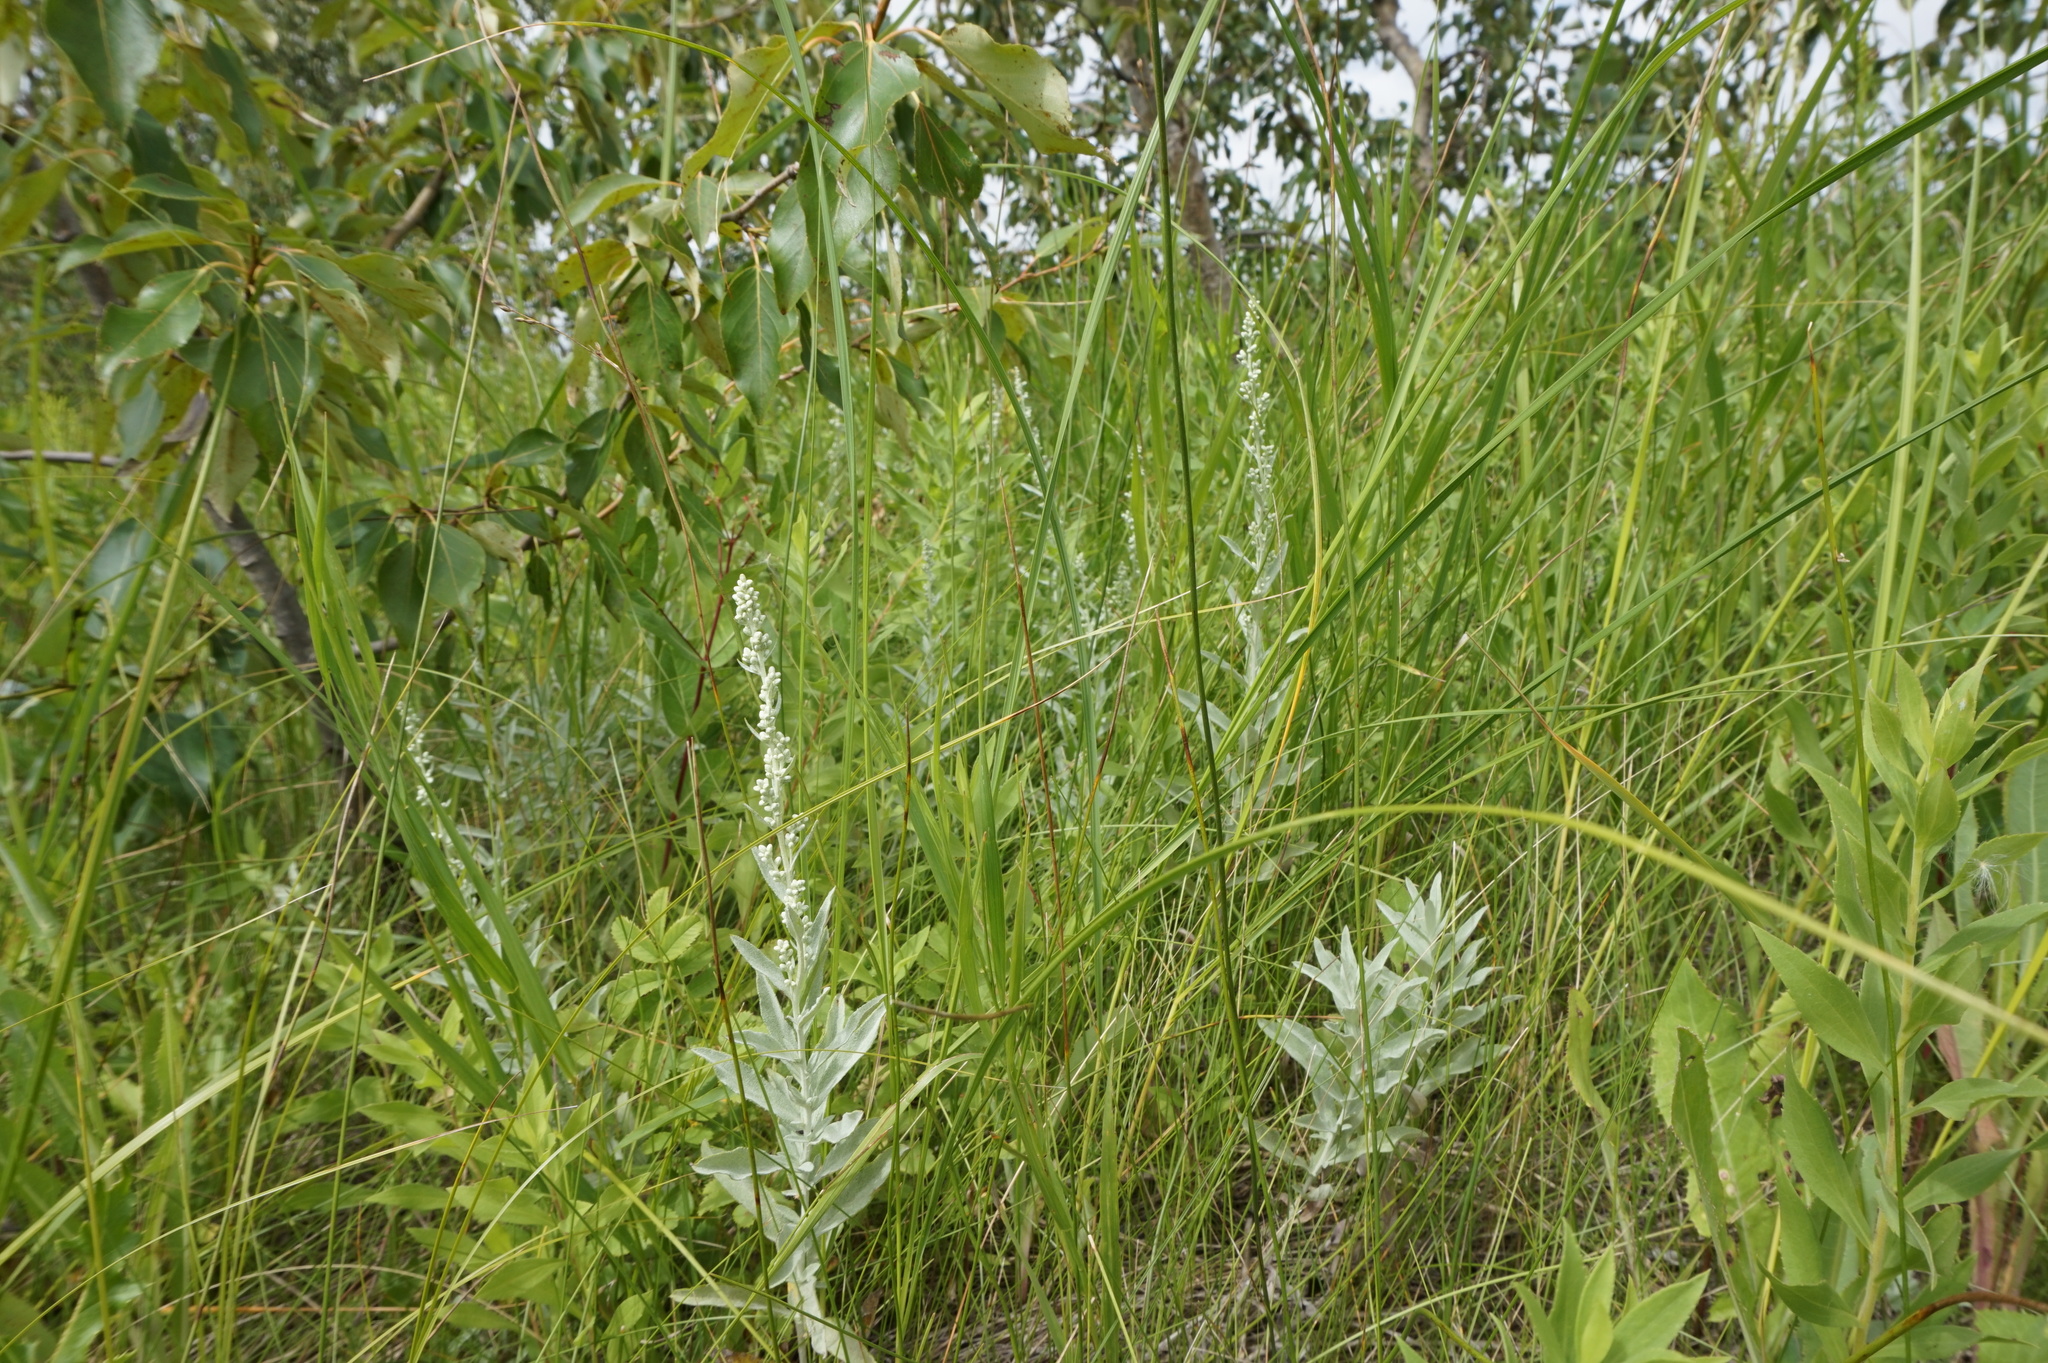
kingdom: Plantae
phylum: Tracheophyta
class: Magnoliopsida
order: Asterales
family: Asteraceae
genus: Artemisia
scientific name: Artemisia ludoviciana
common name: Western mugwort
